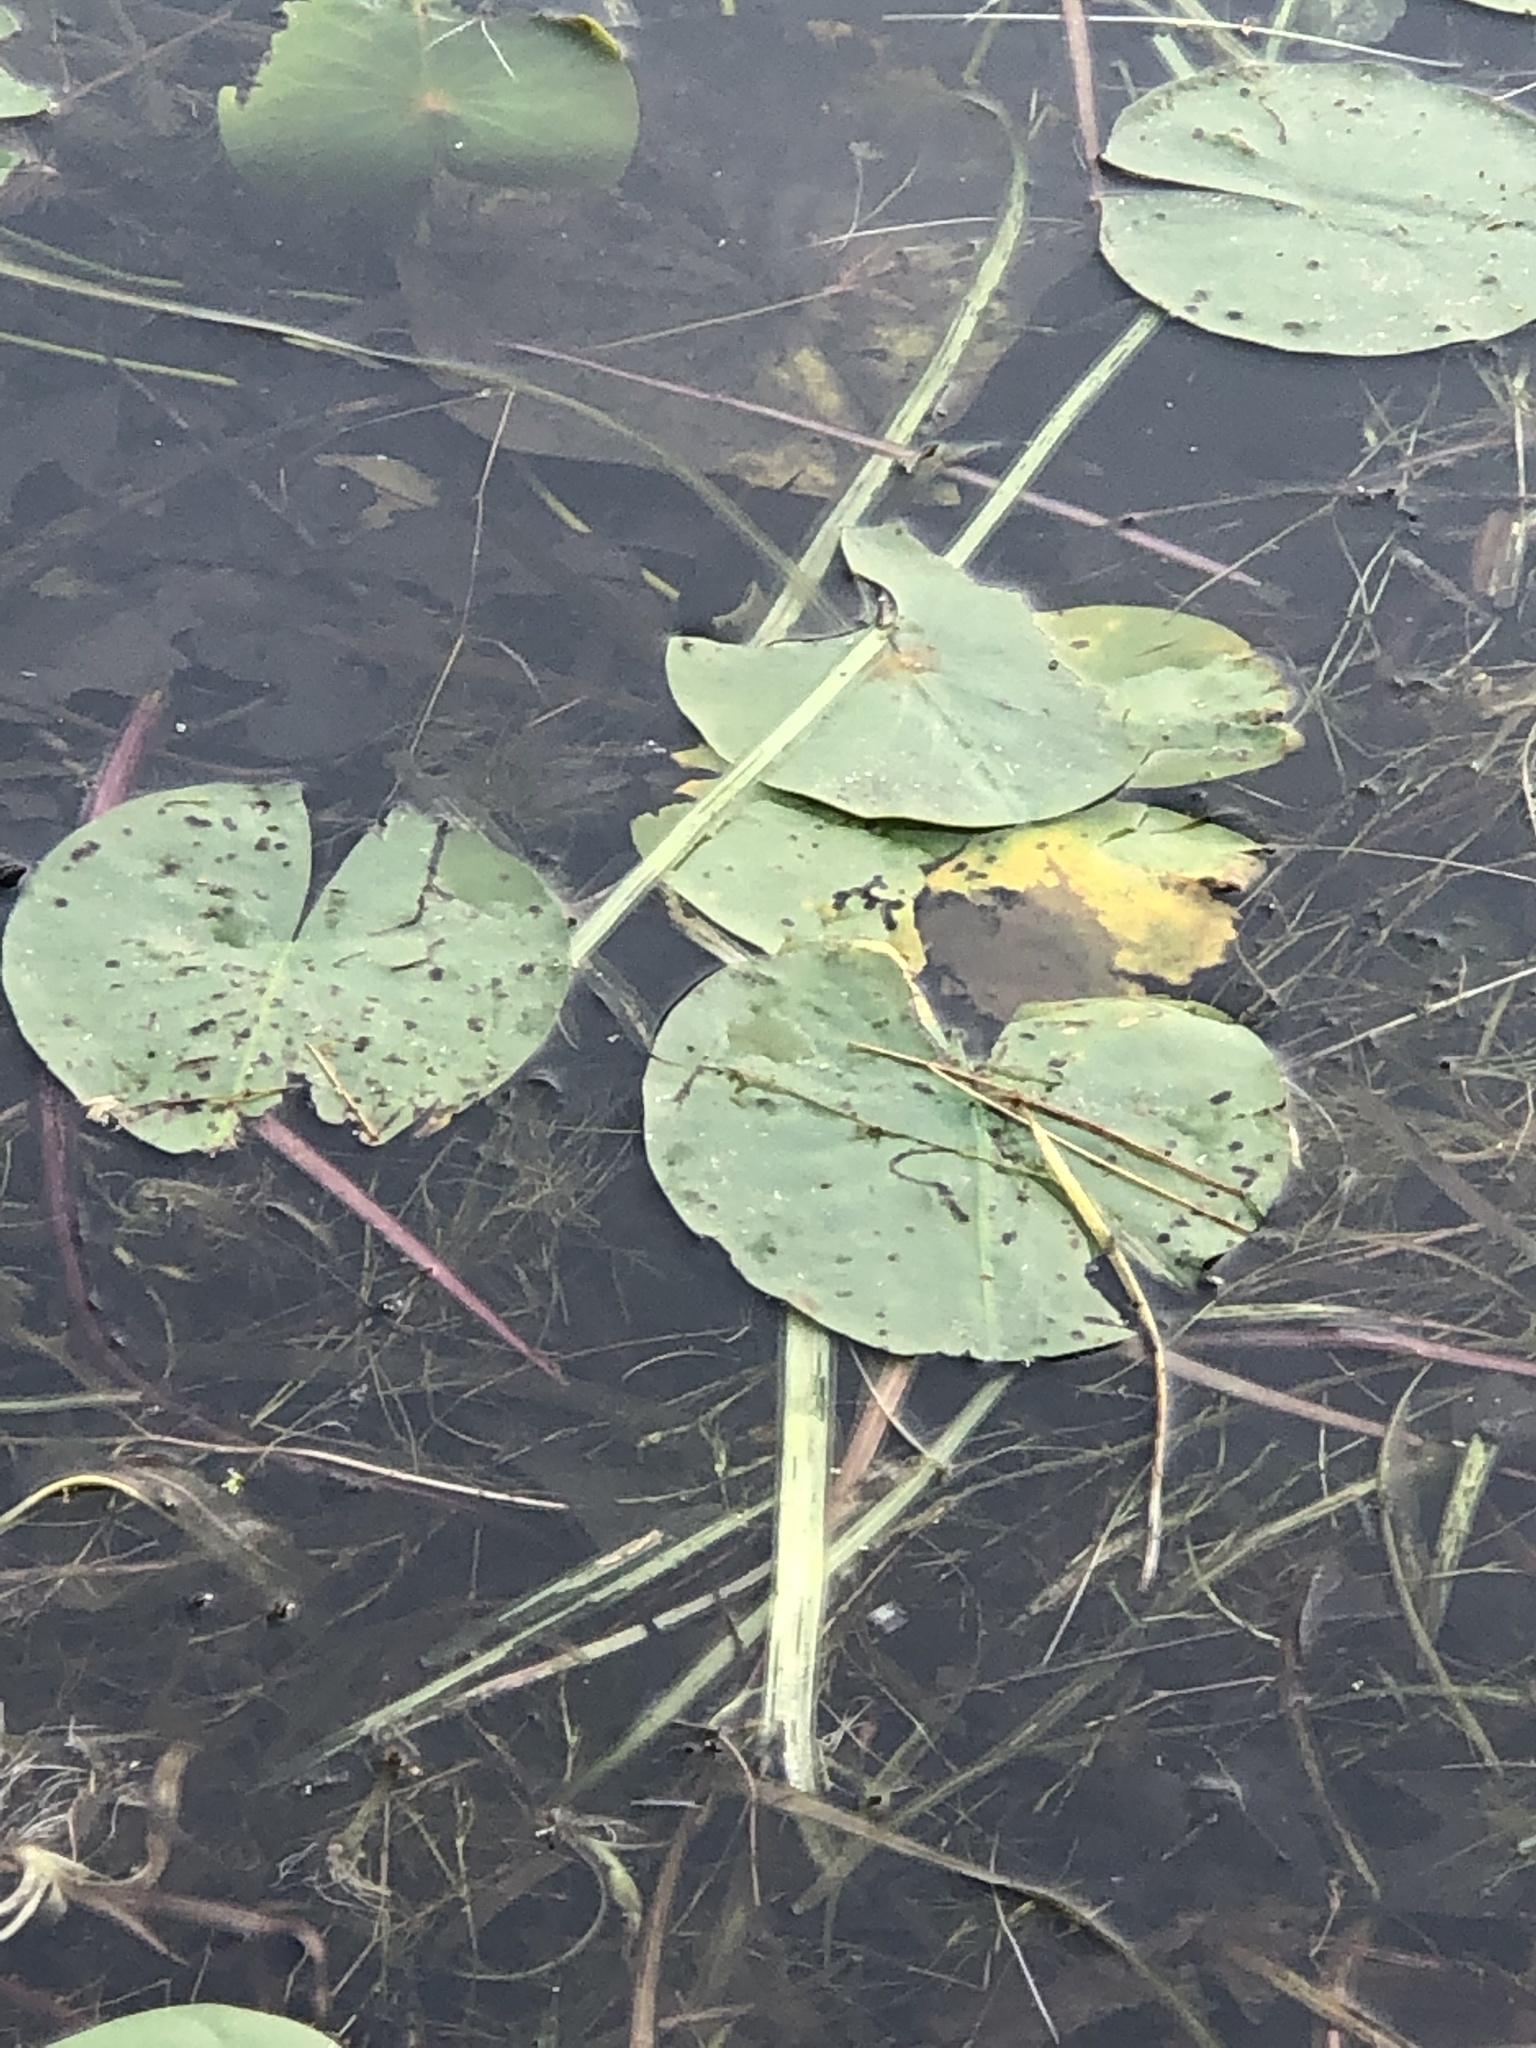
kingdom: Plantae
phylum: Tracheophyta
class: Magnoliopsida
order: Nymphaeales
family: Nymphaeaceae
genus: Nymphaea
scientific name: Nymphaea odorata
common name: Fragrant water-lily
